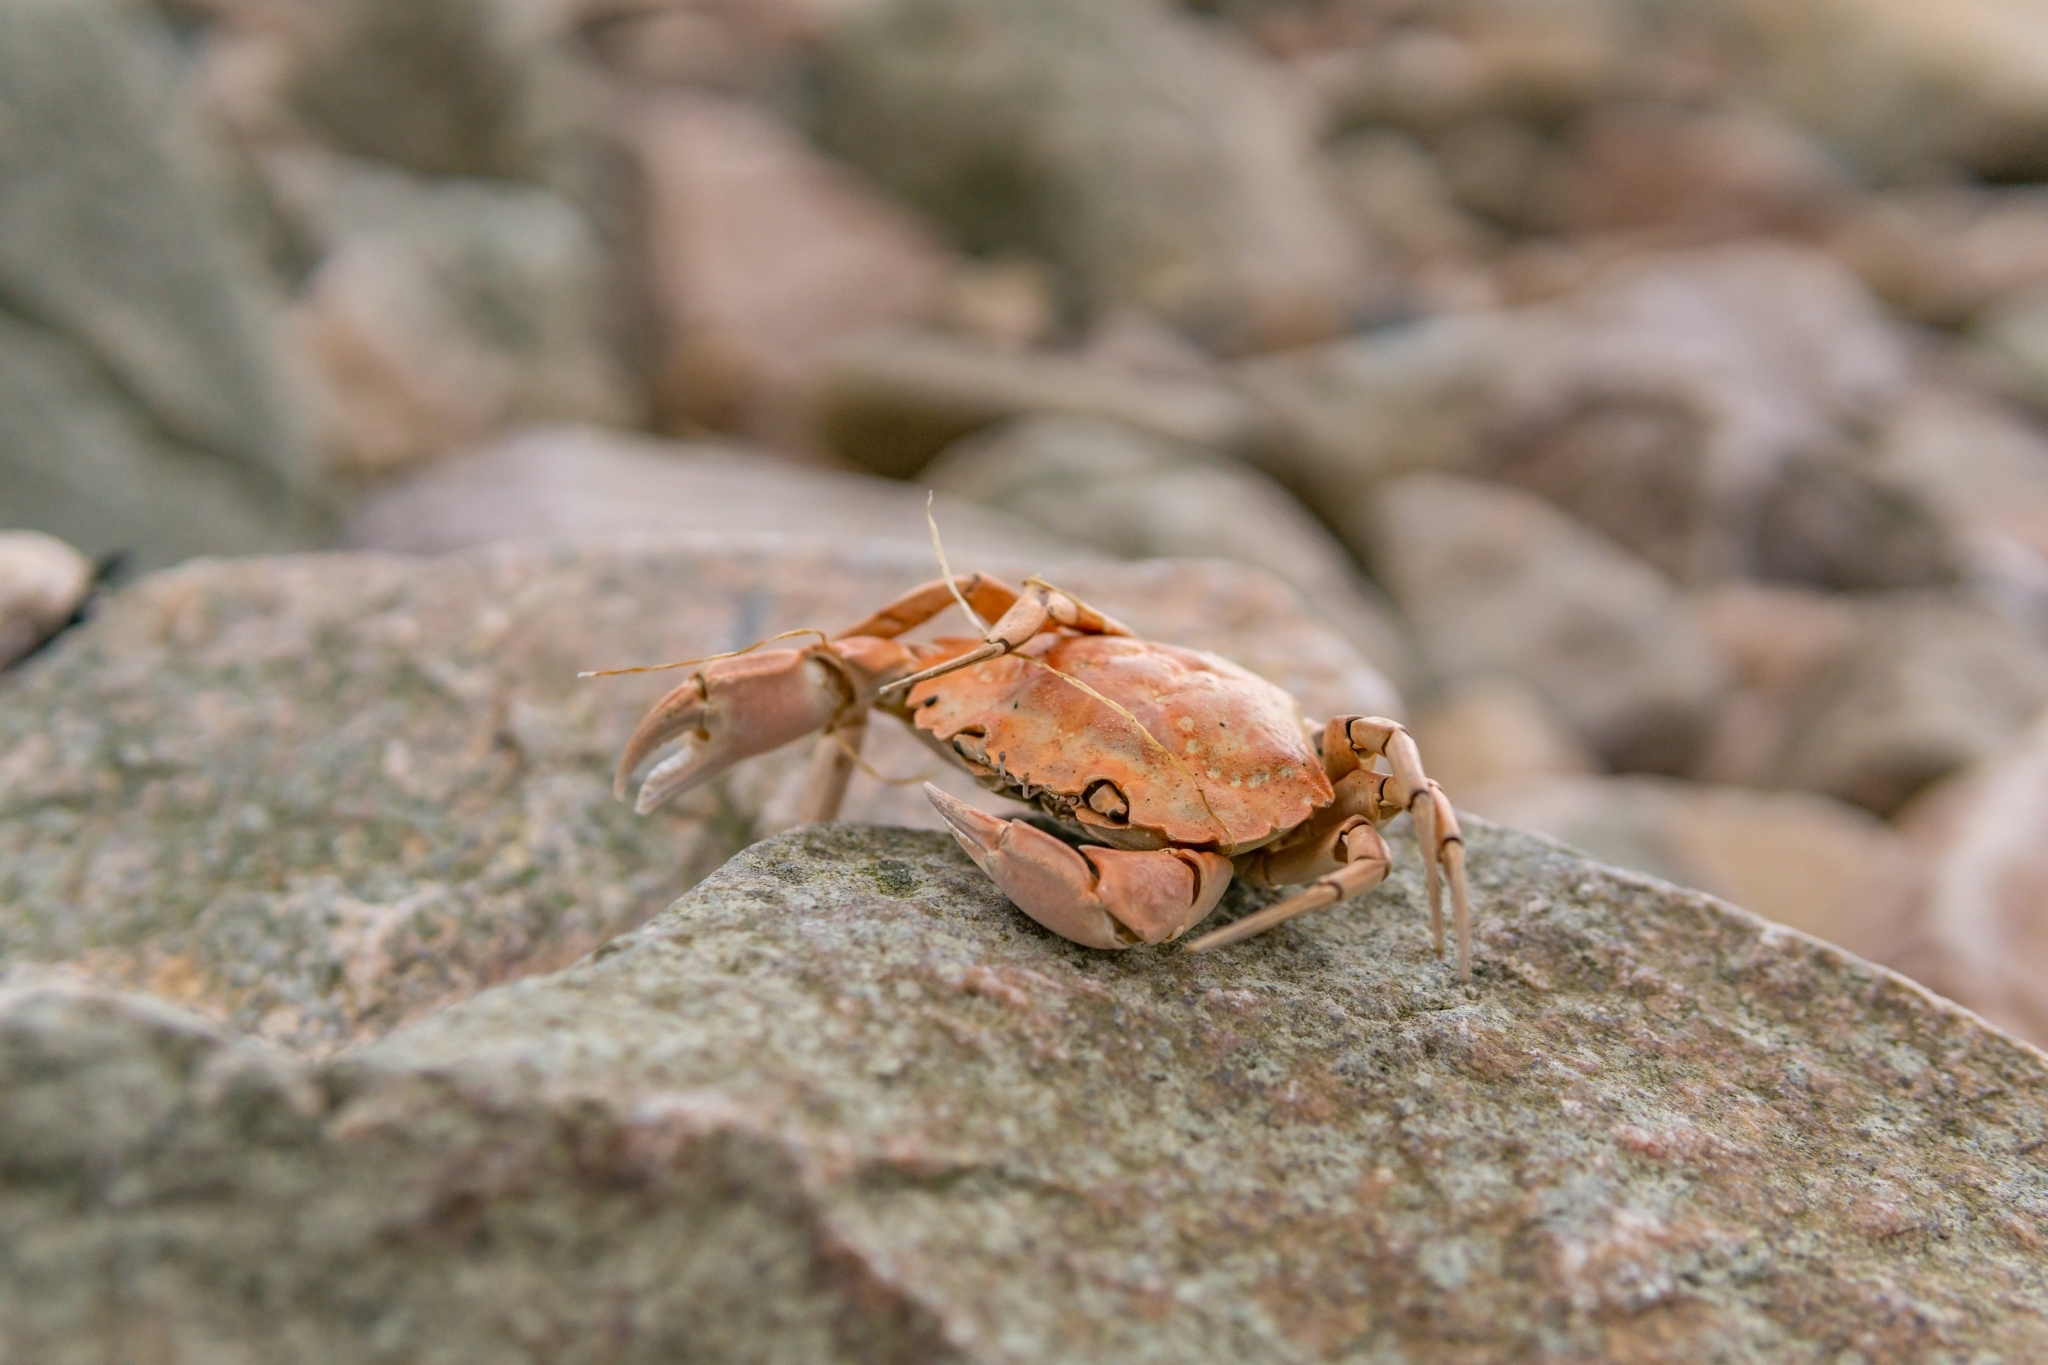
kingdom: Animalia
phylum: Arthropoda
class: Malacostraca
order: Decapoda
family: Carcinidae
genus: Carcinus
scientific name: Carcinus maenas
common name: European green crab
